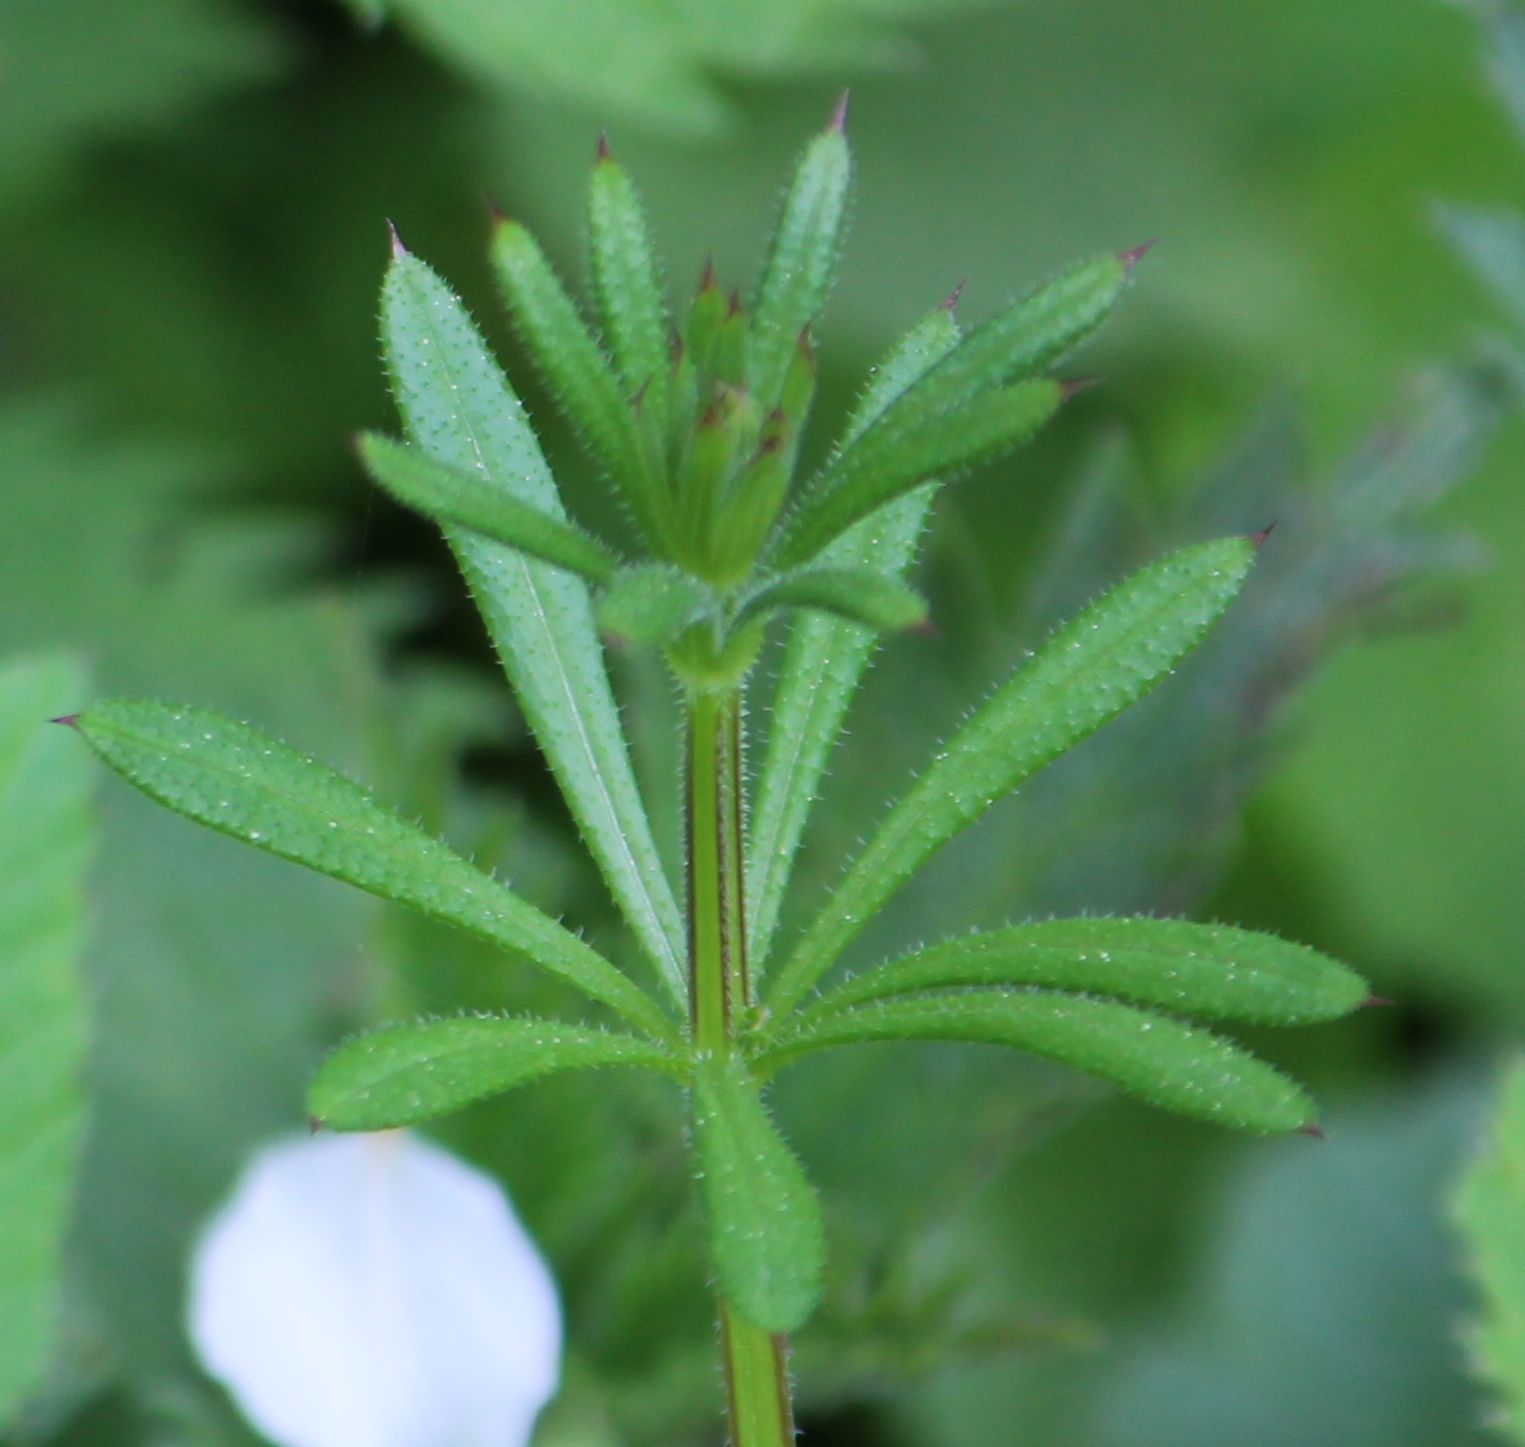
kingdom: Plantae
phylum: Tracheophyta
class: Magnoliopsida
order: Gentianales
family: Rubiaceae
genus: Galium
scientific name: Galium aparine
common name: Cleavers
